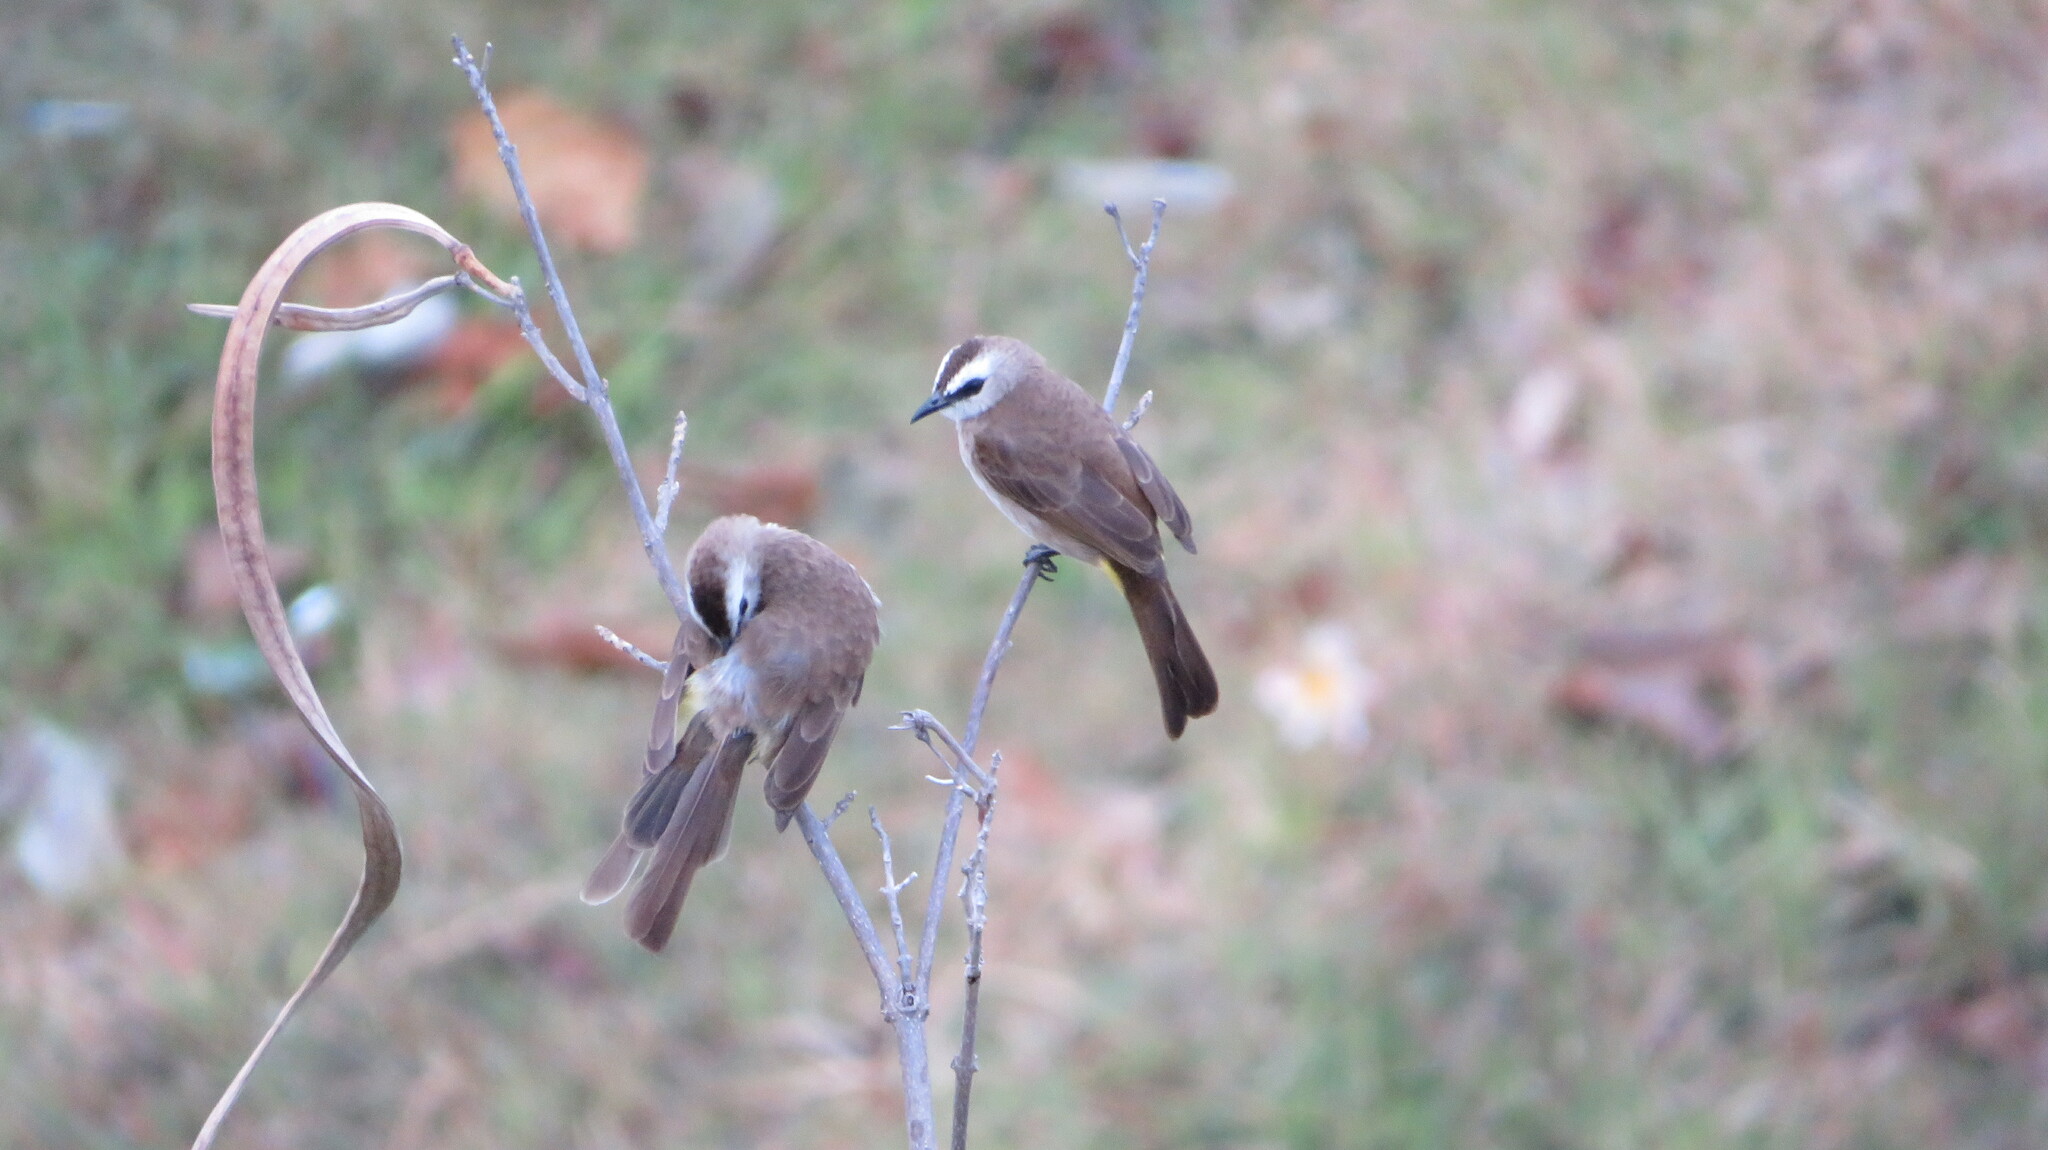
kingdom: Animalia
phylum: Chordata
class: Aves
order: Passeriformes
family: Pycnonotidae
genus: Pycnonotus
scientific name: Pycnonotus goiavier
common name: Yellow-vented bulbul
